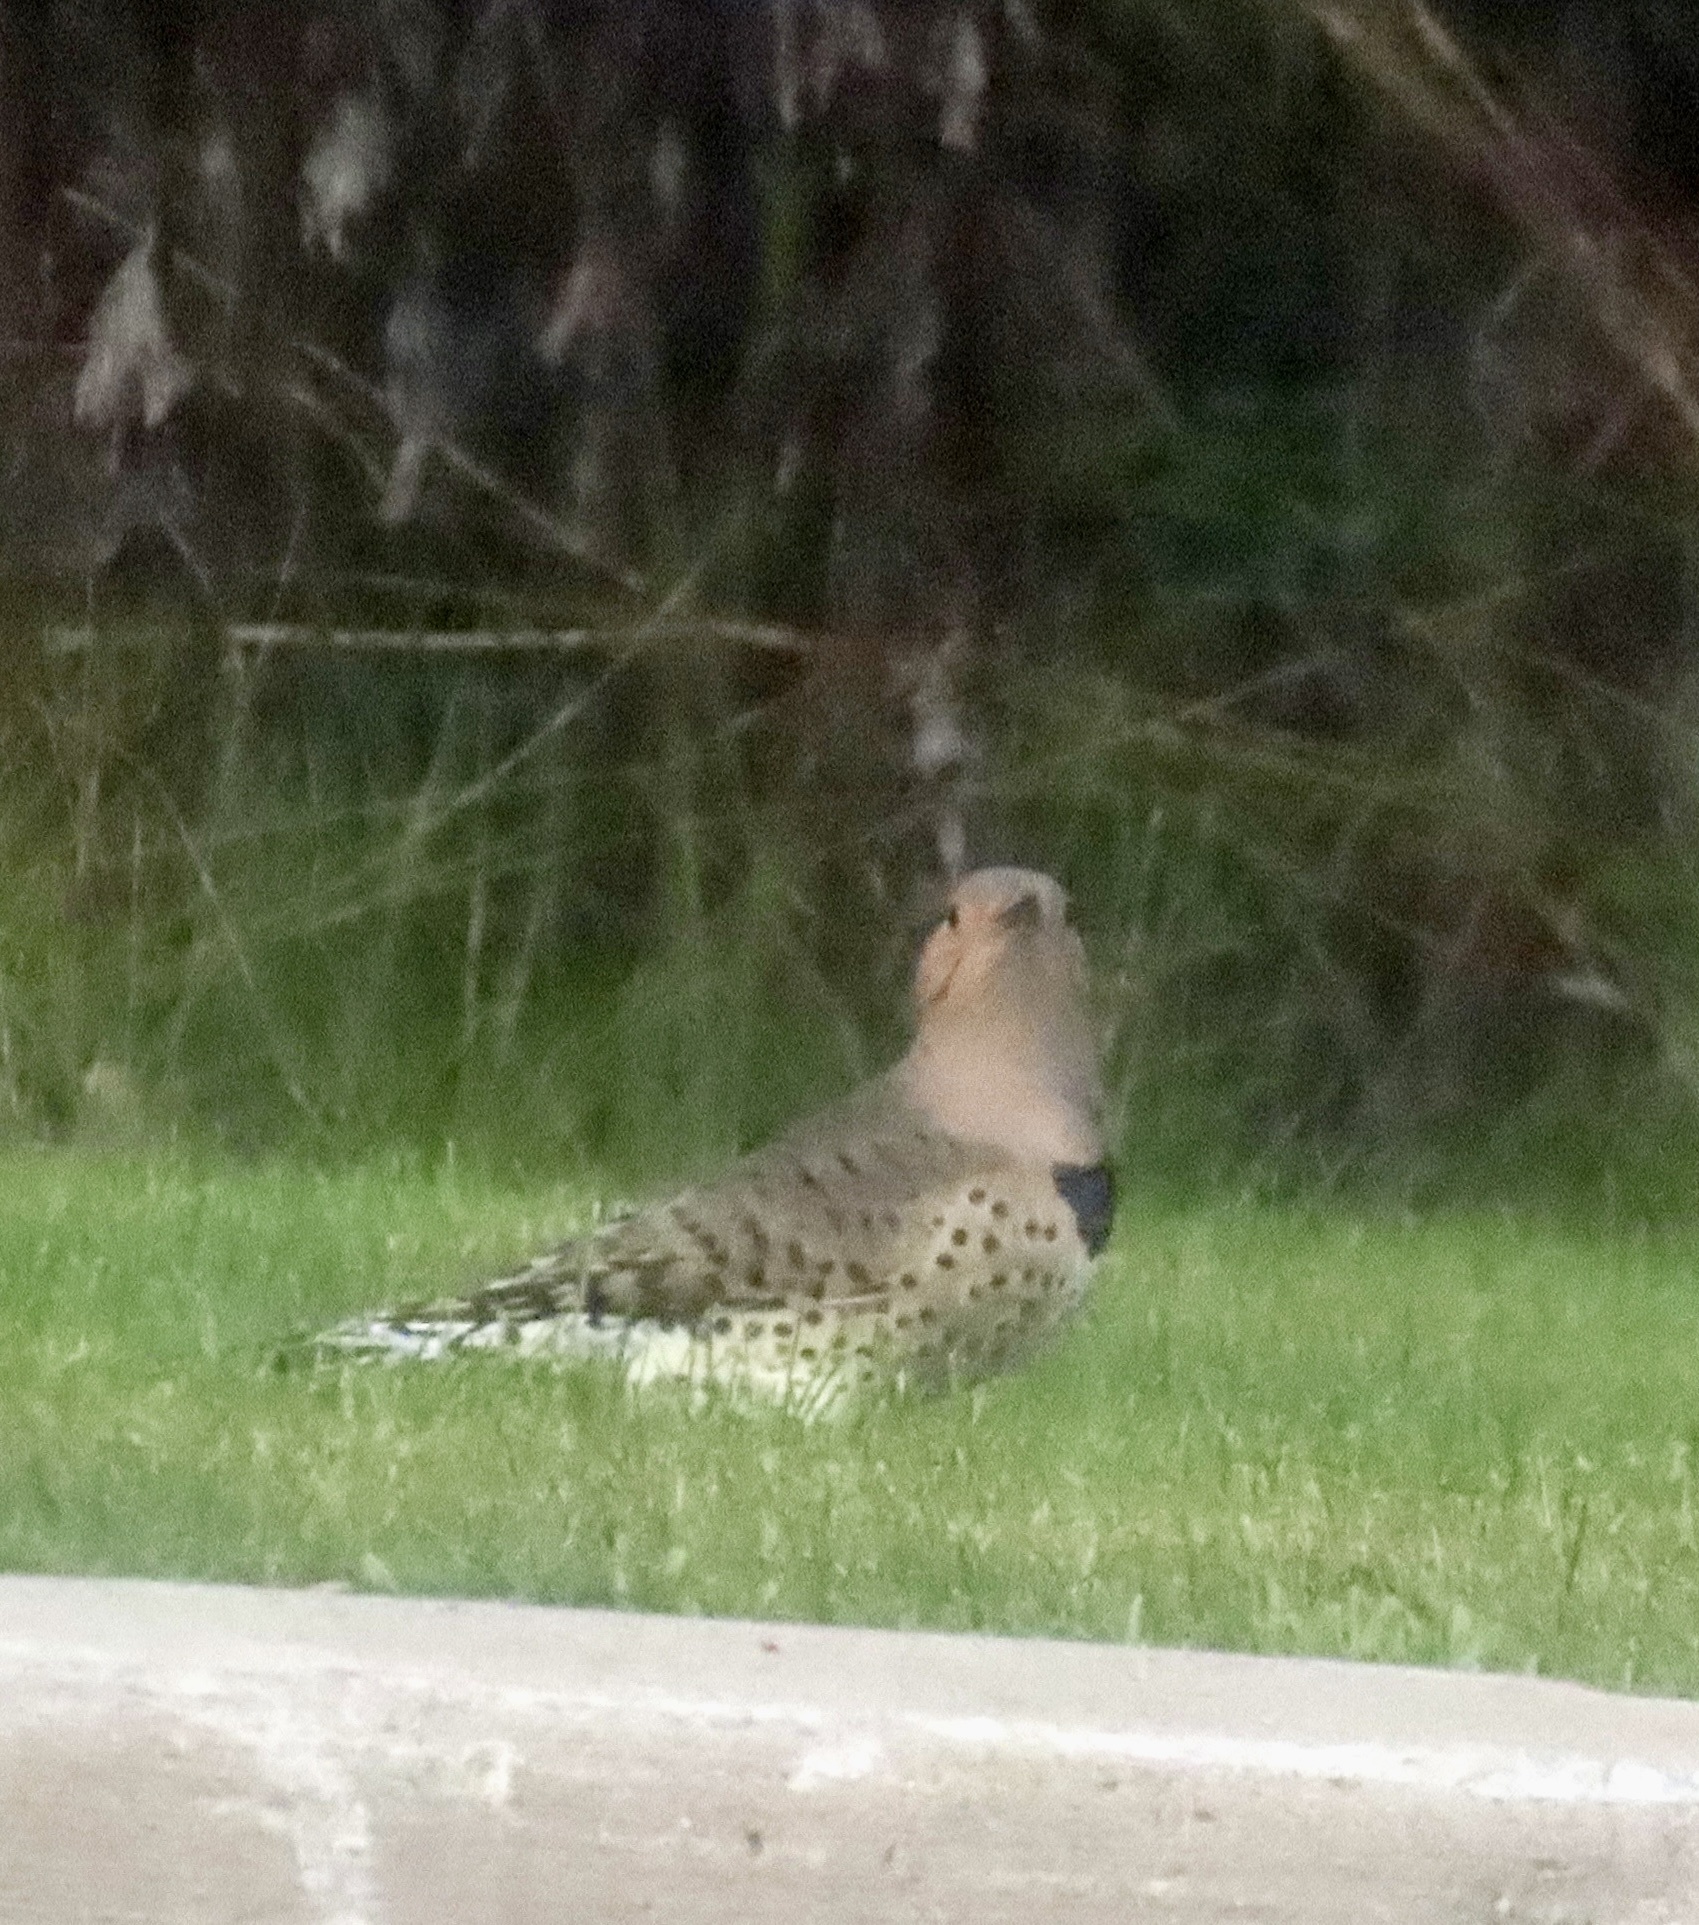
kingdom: Animalia
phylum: Chordata
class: Aves
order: Piciformes
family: Picidae
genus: Colaptes
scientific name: Colaptes auratus
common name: Northern flicker
